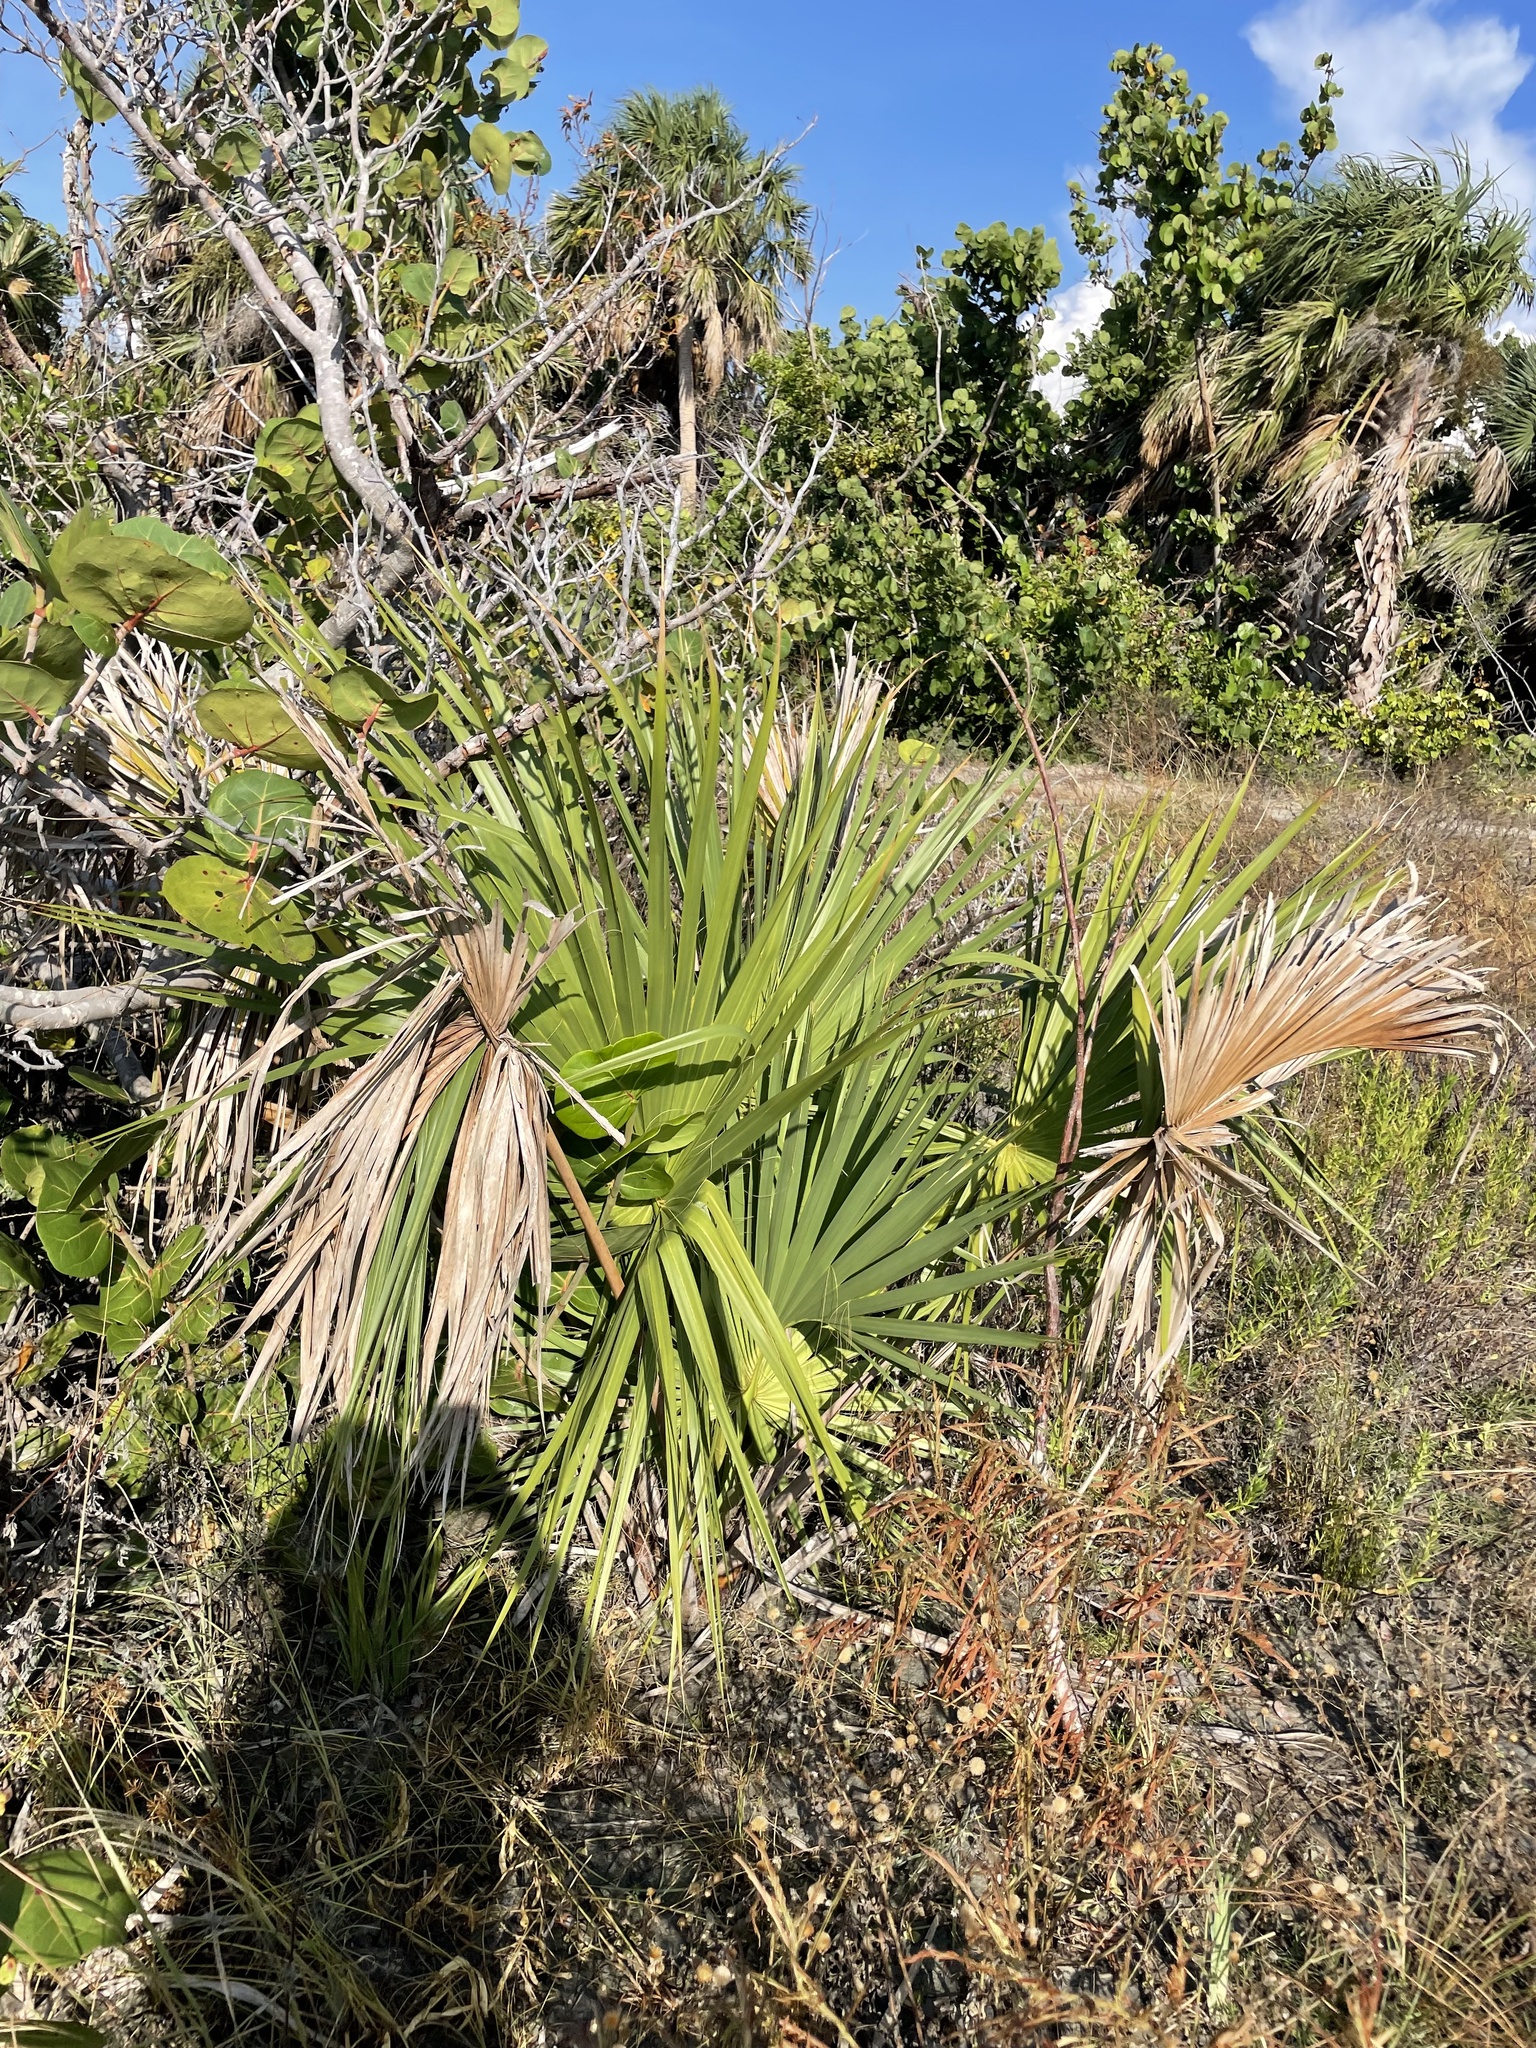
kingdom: Plantae
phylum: Tracheophyta
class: Liliopsida
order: Arecales
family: Arecaceae
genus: Sabal
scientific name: Sabal palmetto
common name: Blue palmetto
